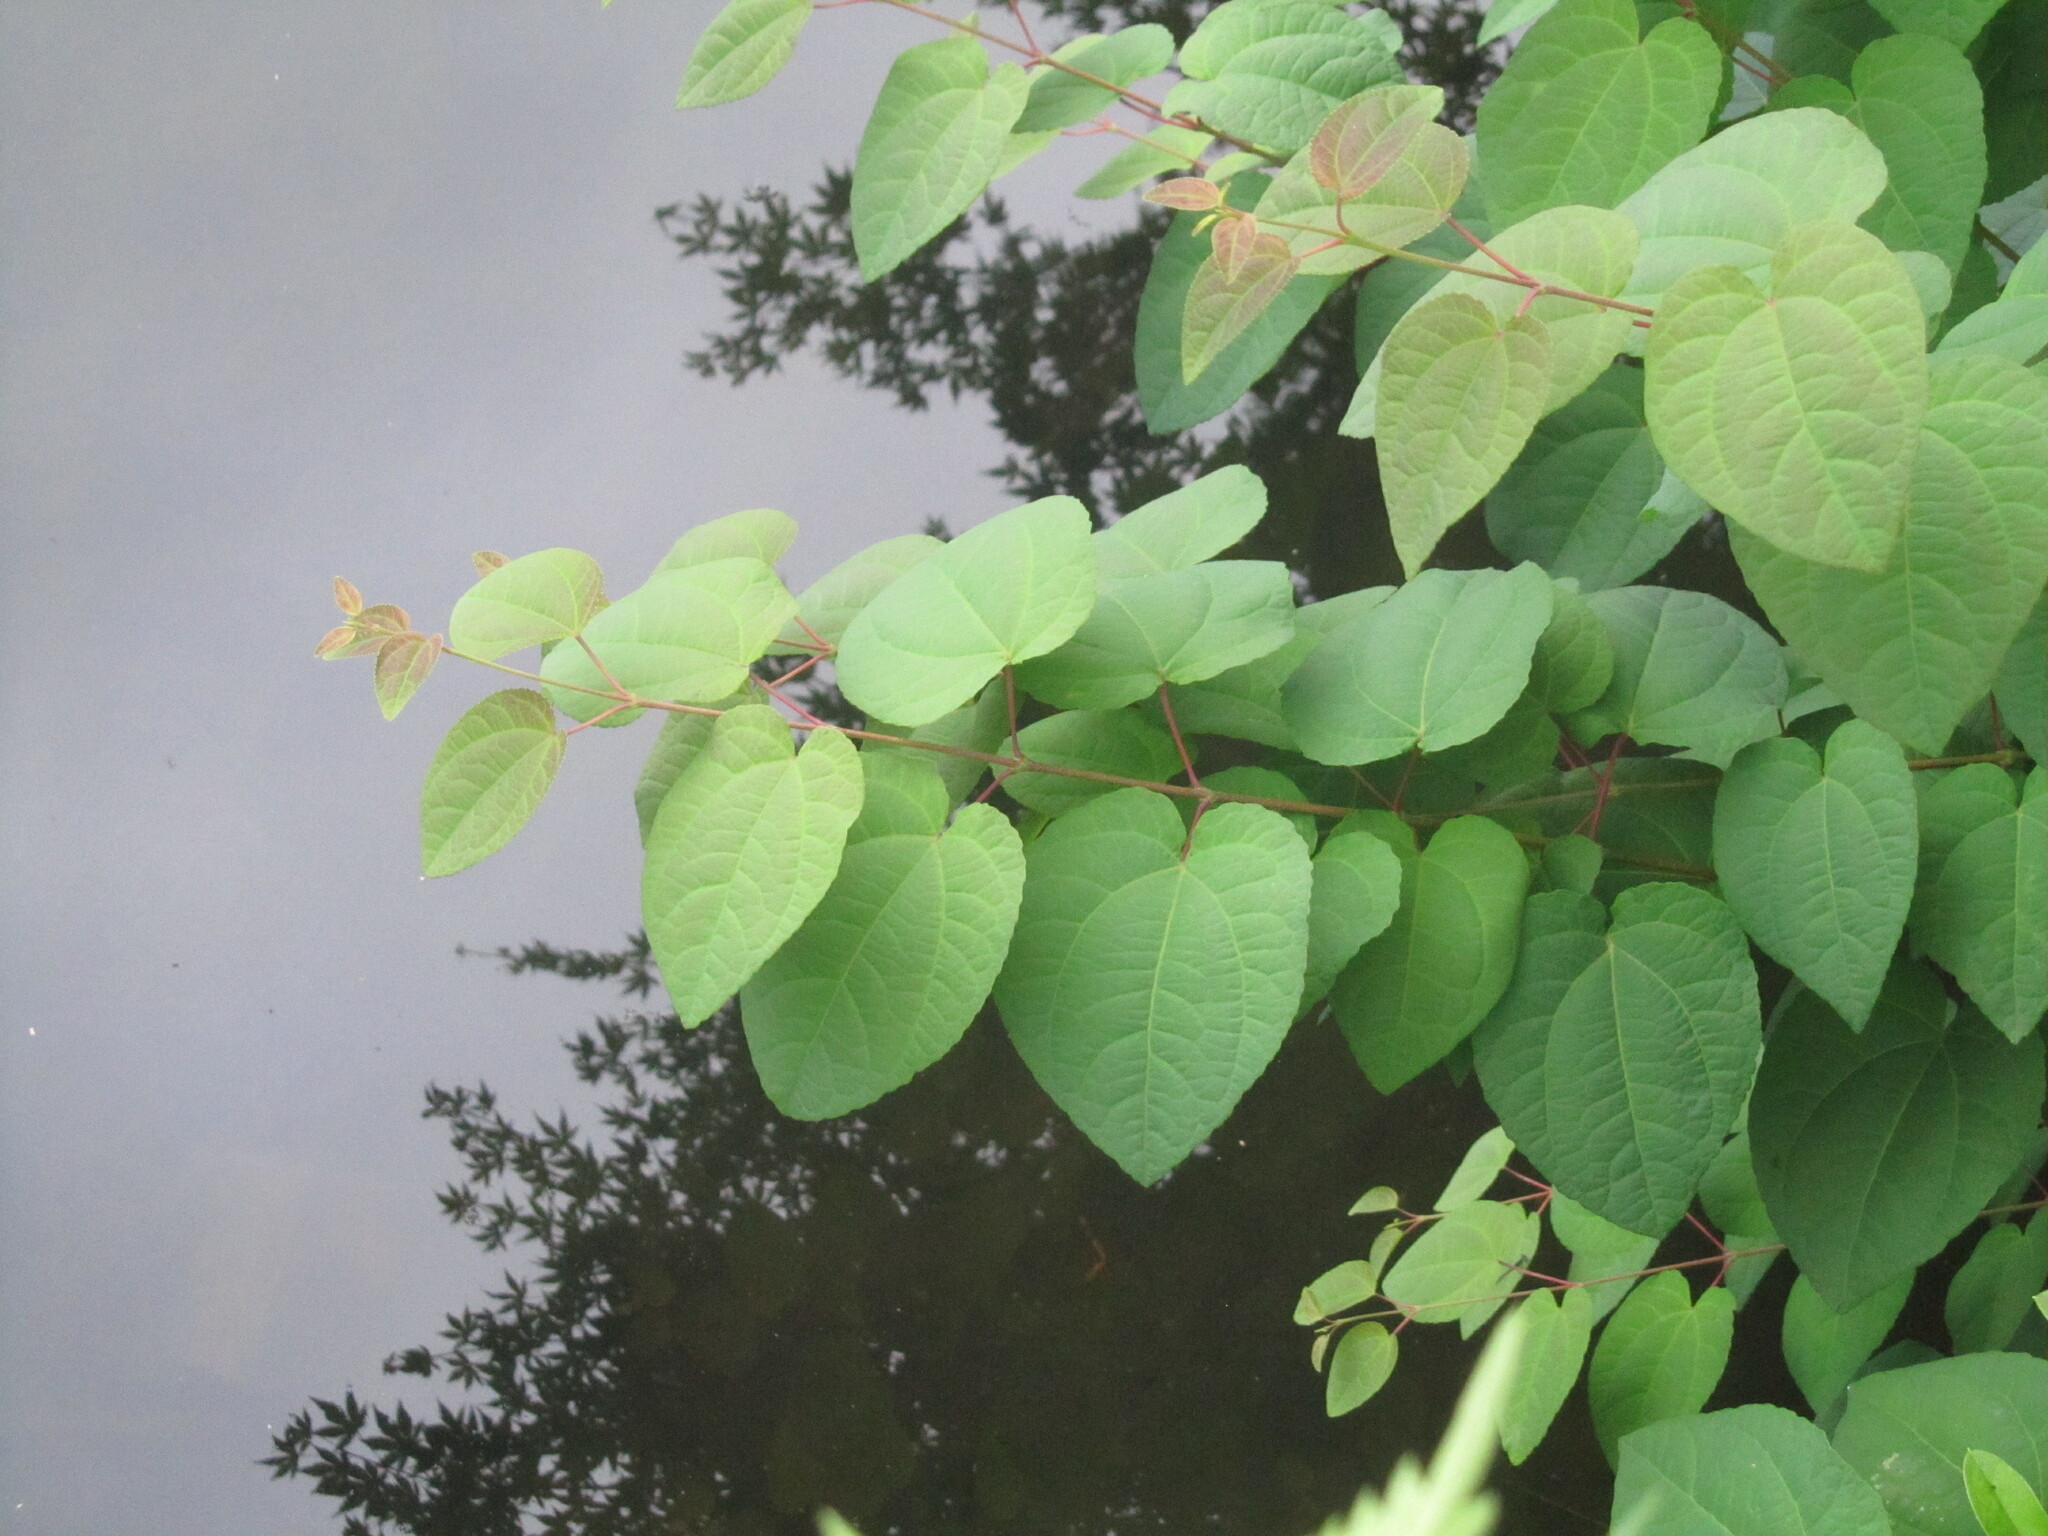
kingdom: Plantae
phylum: Tracheophyta
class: Magnoliopsida
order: Saxifragales
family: Cercidiphyllaceae
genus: Cercidiphyllum
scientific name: Cercidiphyllum japonicum
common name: Katsura tree
